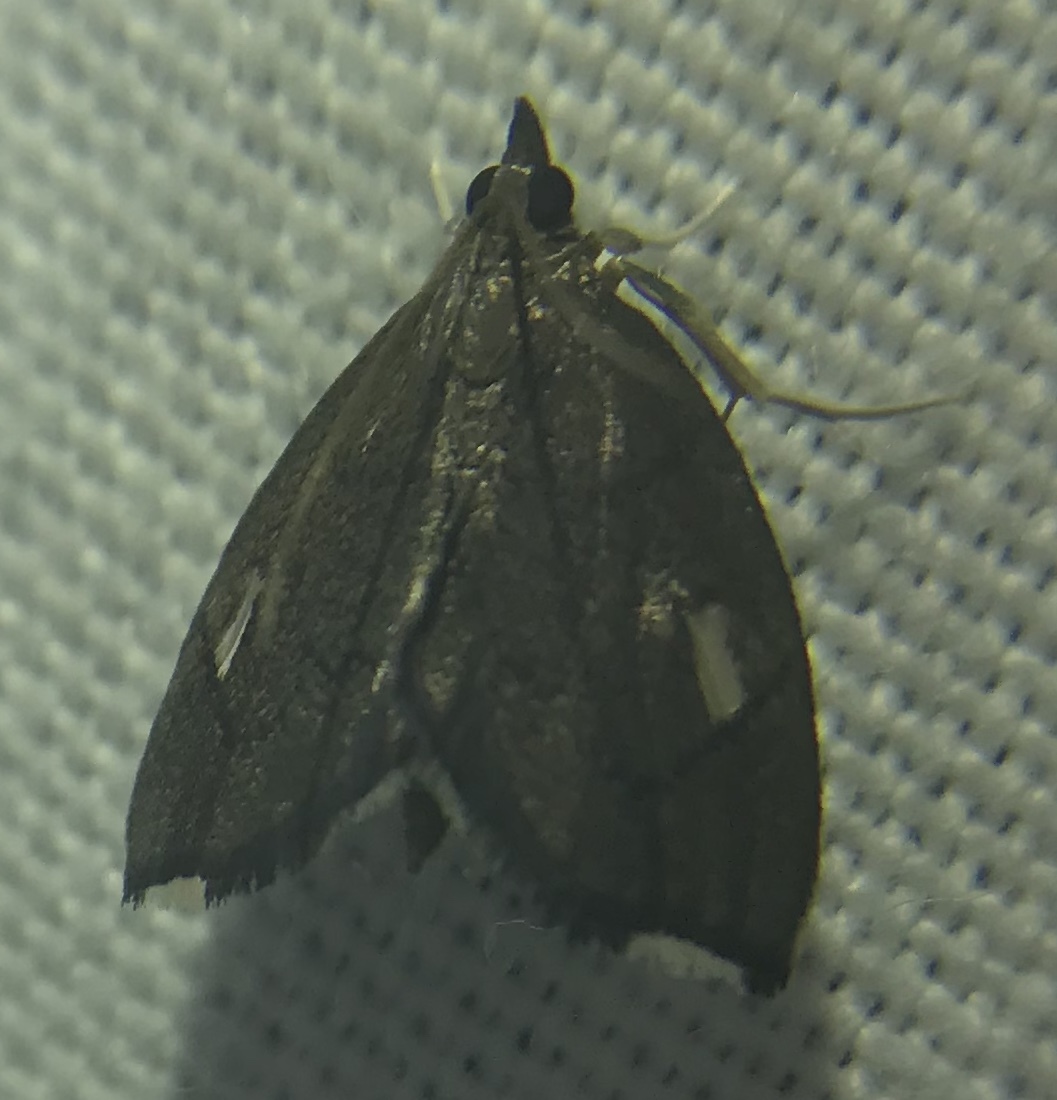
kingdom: Animalia
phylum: Arthropoda
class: Insecta
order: Lepidoptera
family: Crambidae
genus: Perispasta
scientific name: Perispasta caeculalis
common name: Titian peale's moth
